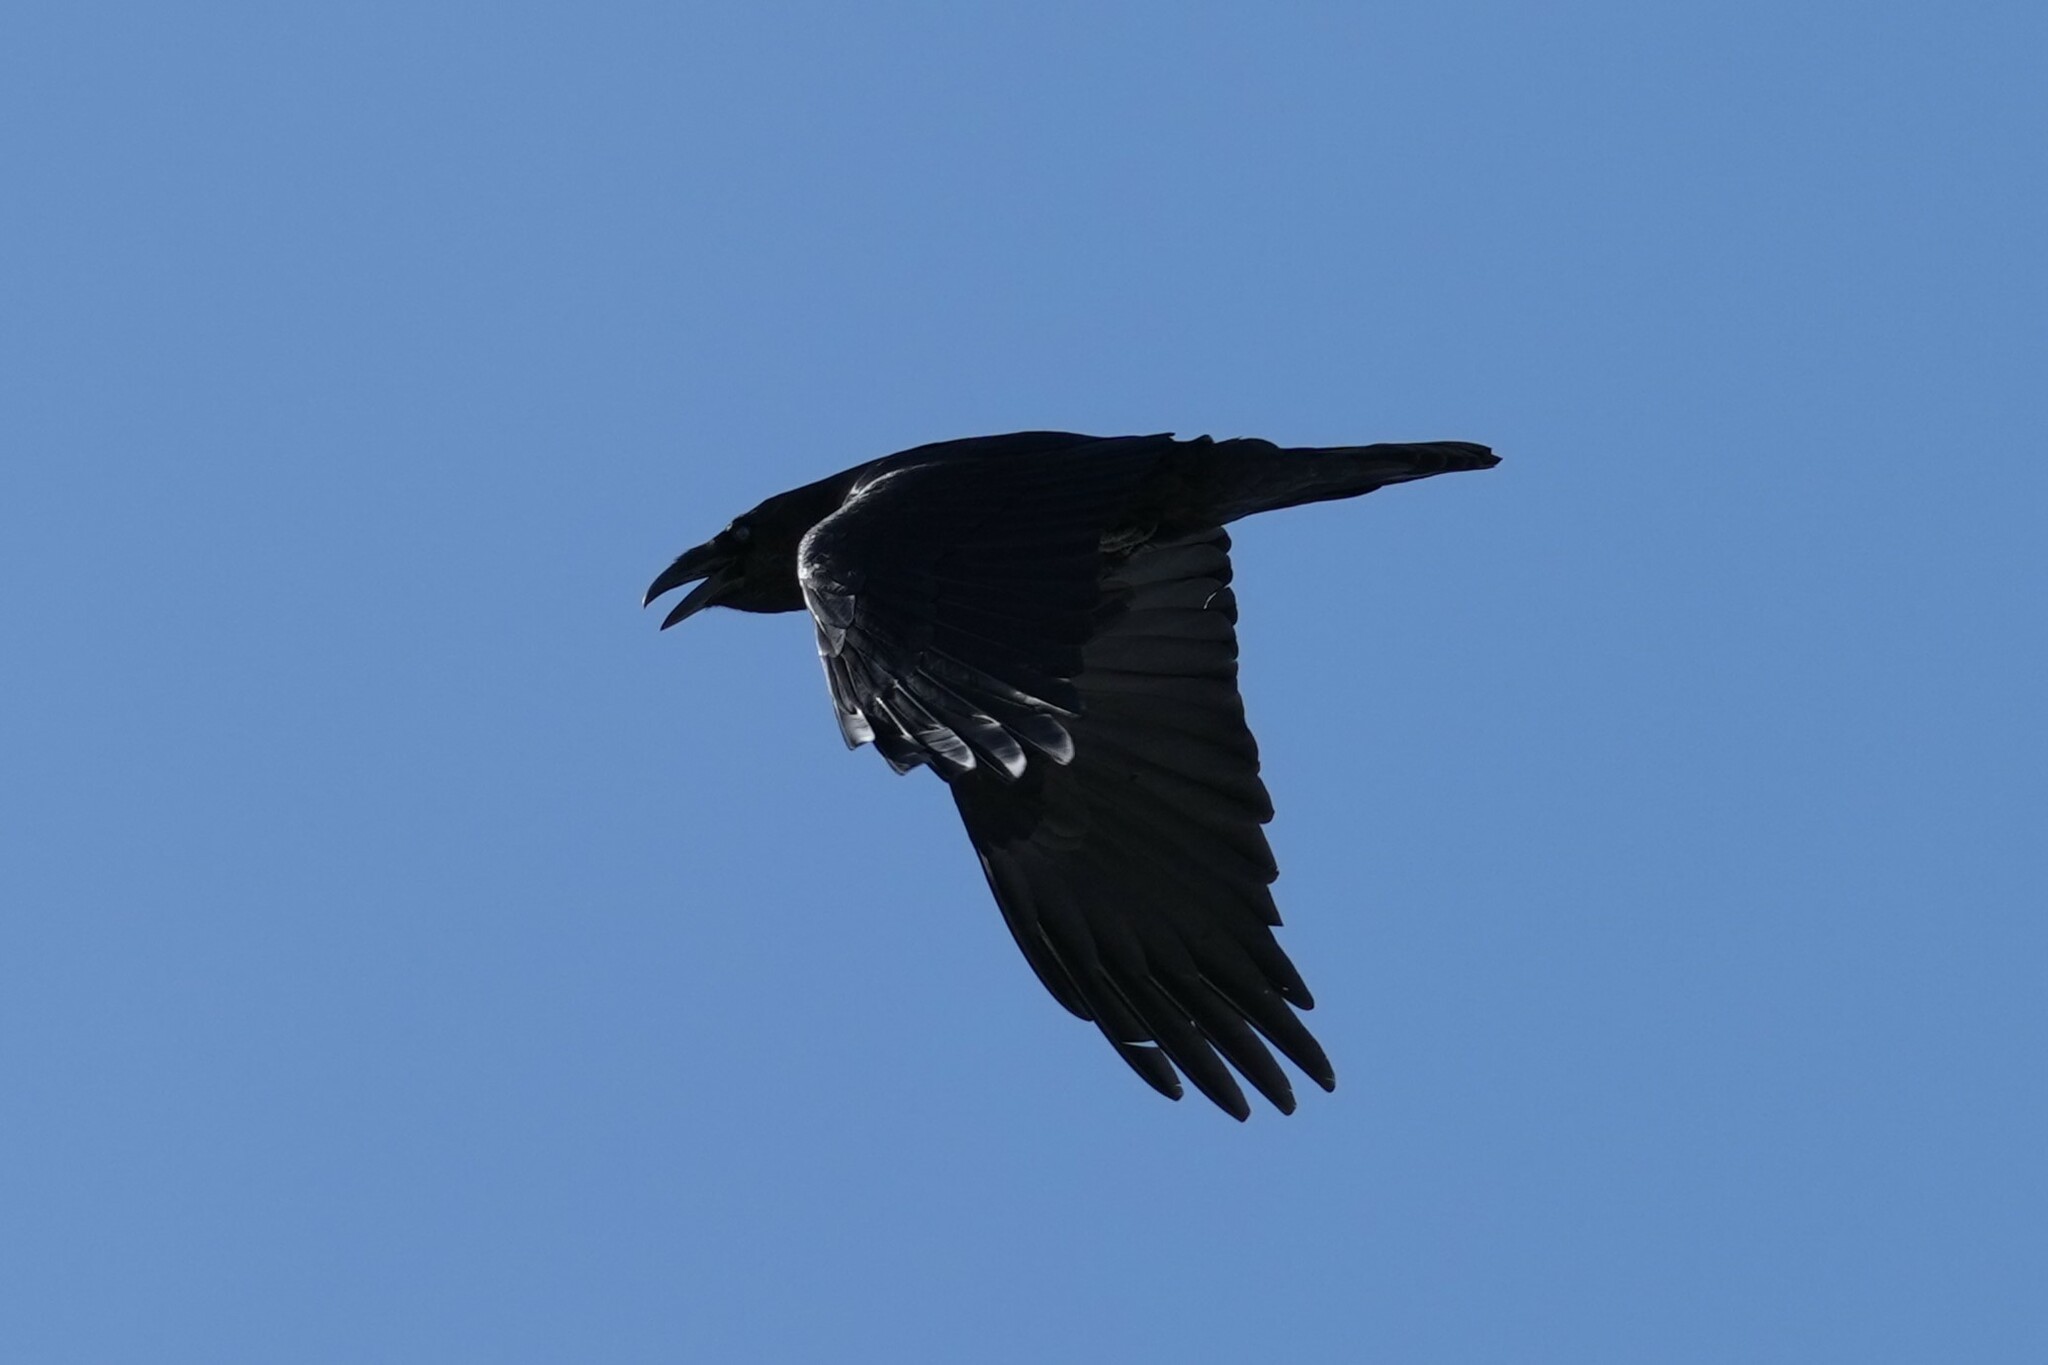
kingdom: Animalia
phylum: Chordata
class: Aves
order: Passeriformes
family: Corvidae
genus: Corvus
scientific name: Corvus corax
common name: Common raven
